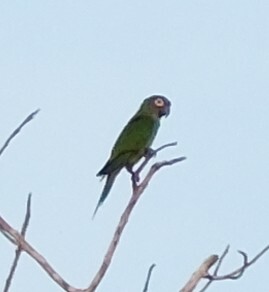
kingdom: Animalia
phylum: Chordata
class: Aves
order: Psittaciformes
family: Psittacidae
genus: Aratinga
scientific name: Aratinga weddellii
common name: Dusky-headed parakeet
